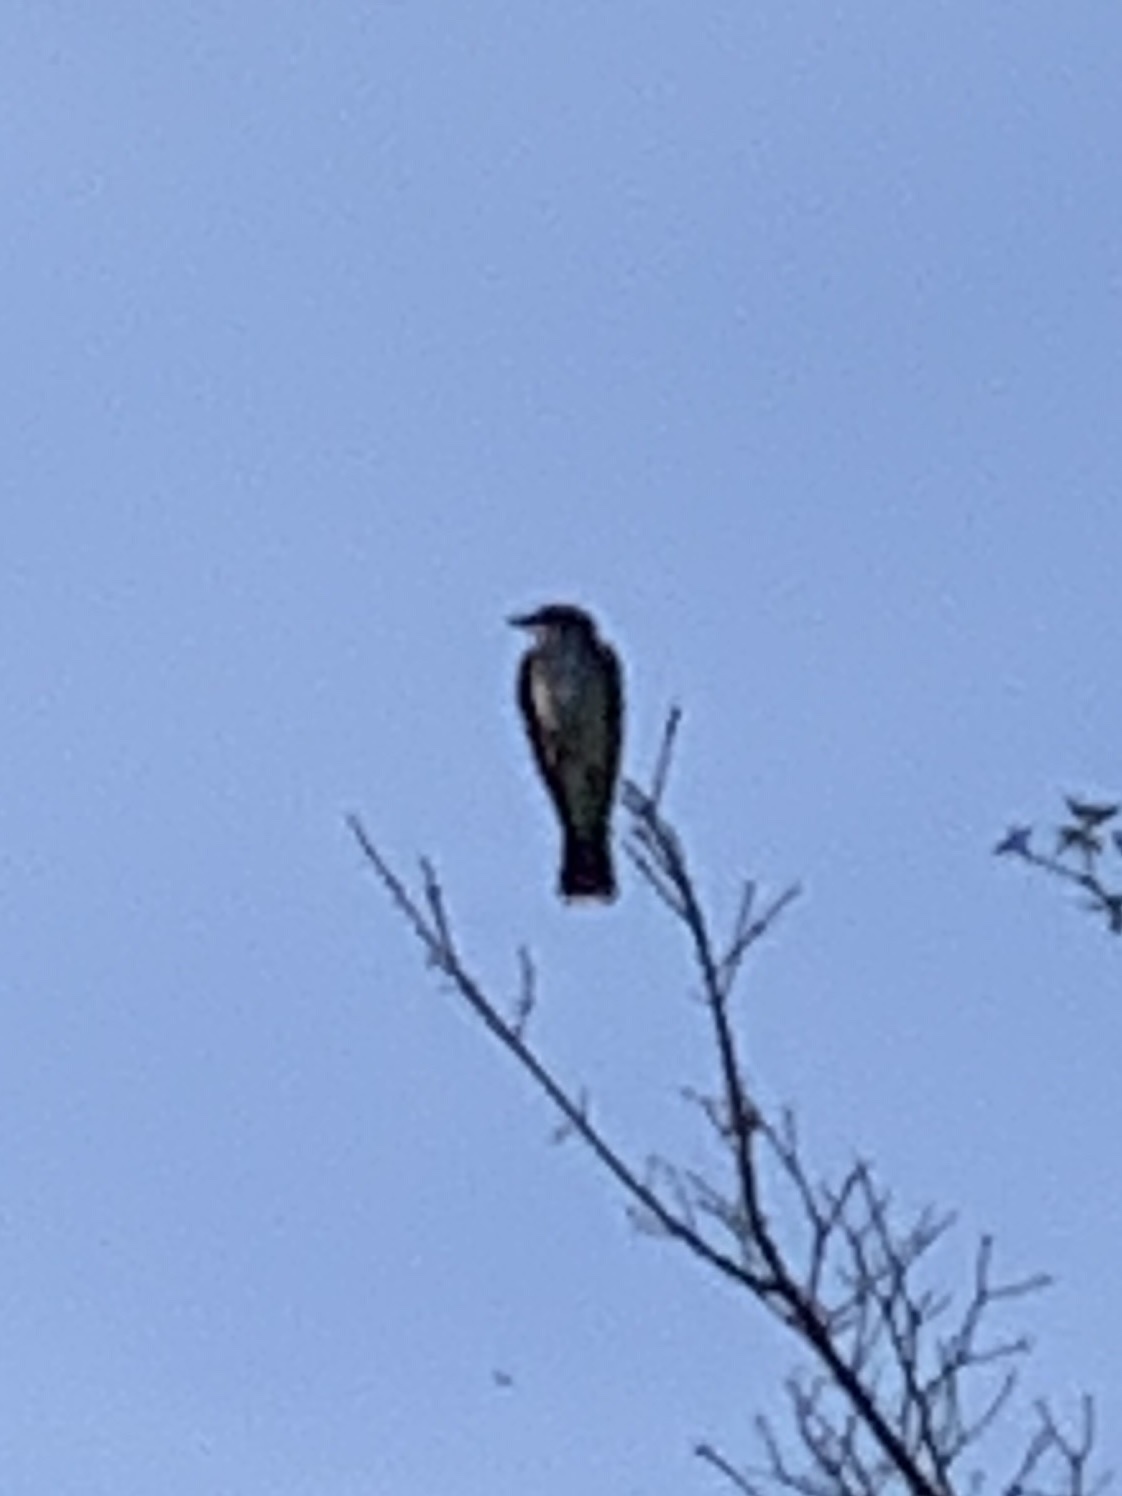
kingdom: Animalia
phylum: Chordata
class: Aves
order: Passeriformes
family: Tyrannidae
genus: Tyrannus
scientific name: Tyrannus tyrannus
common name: Eastern kingbird
